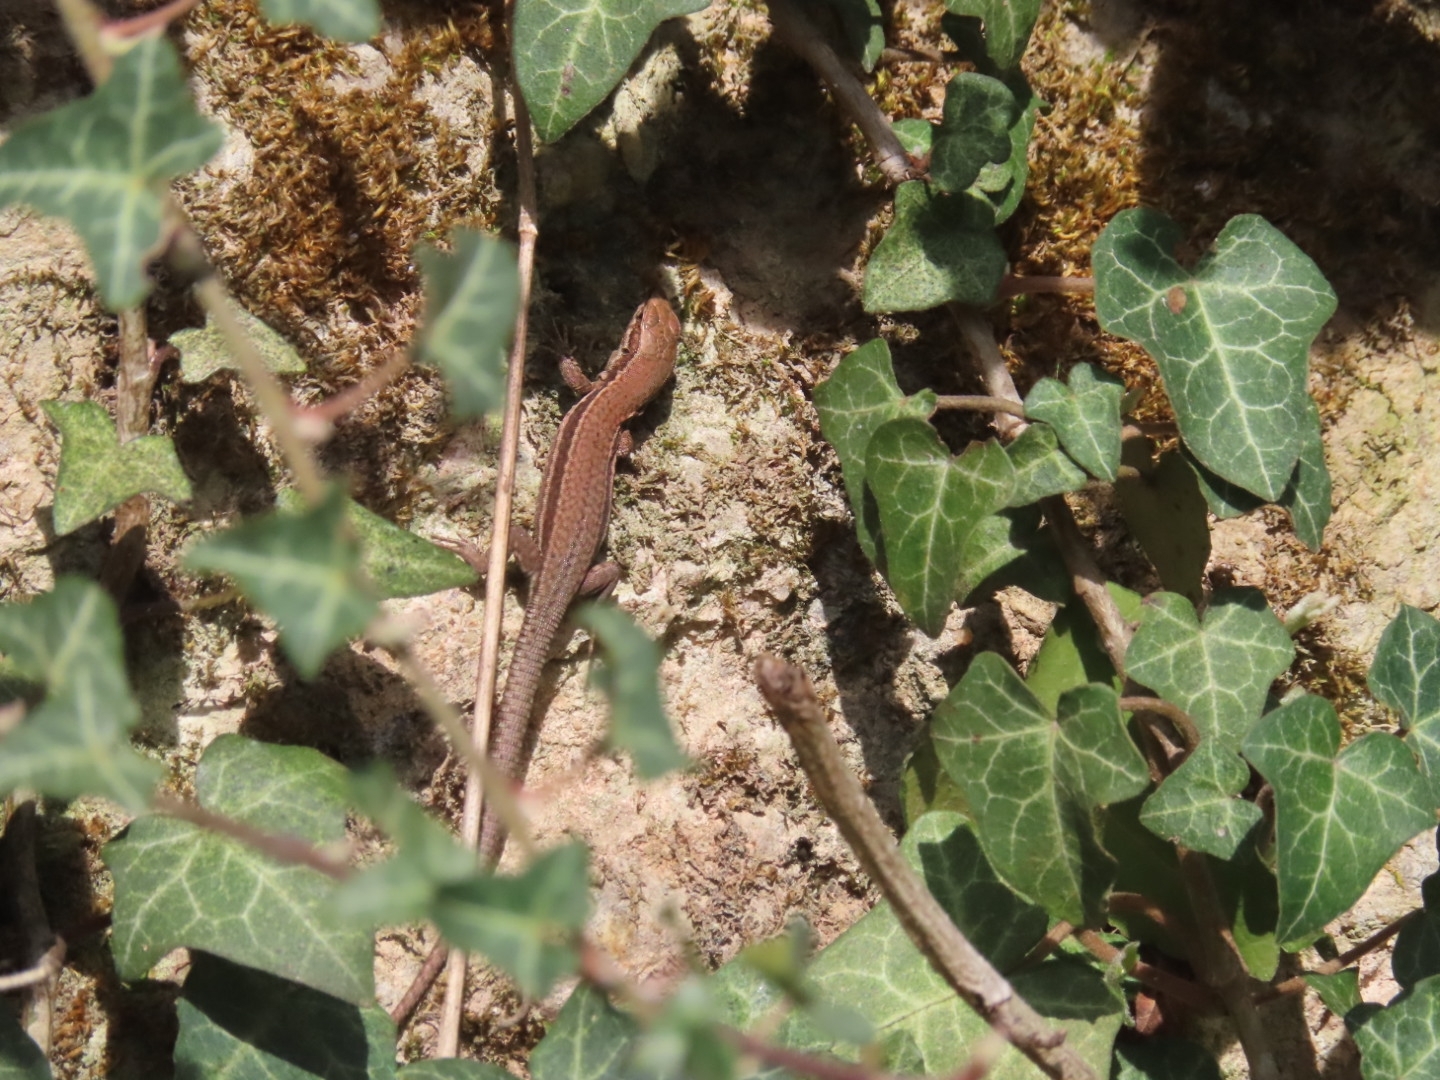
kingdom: Animalia
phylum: Chordata
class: Squamata
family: Lacertidae
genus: Podarcis
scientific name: Podarcis muralis
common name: Common wall lizard
